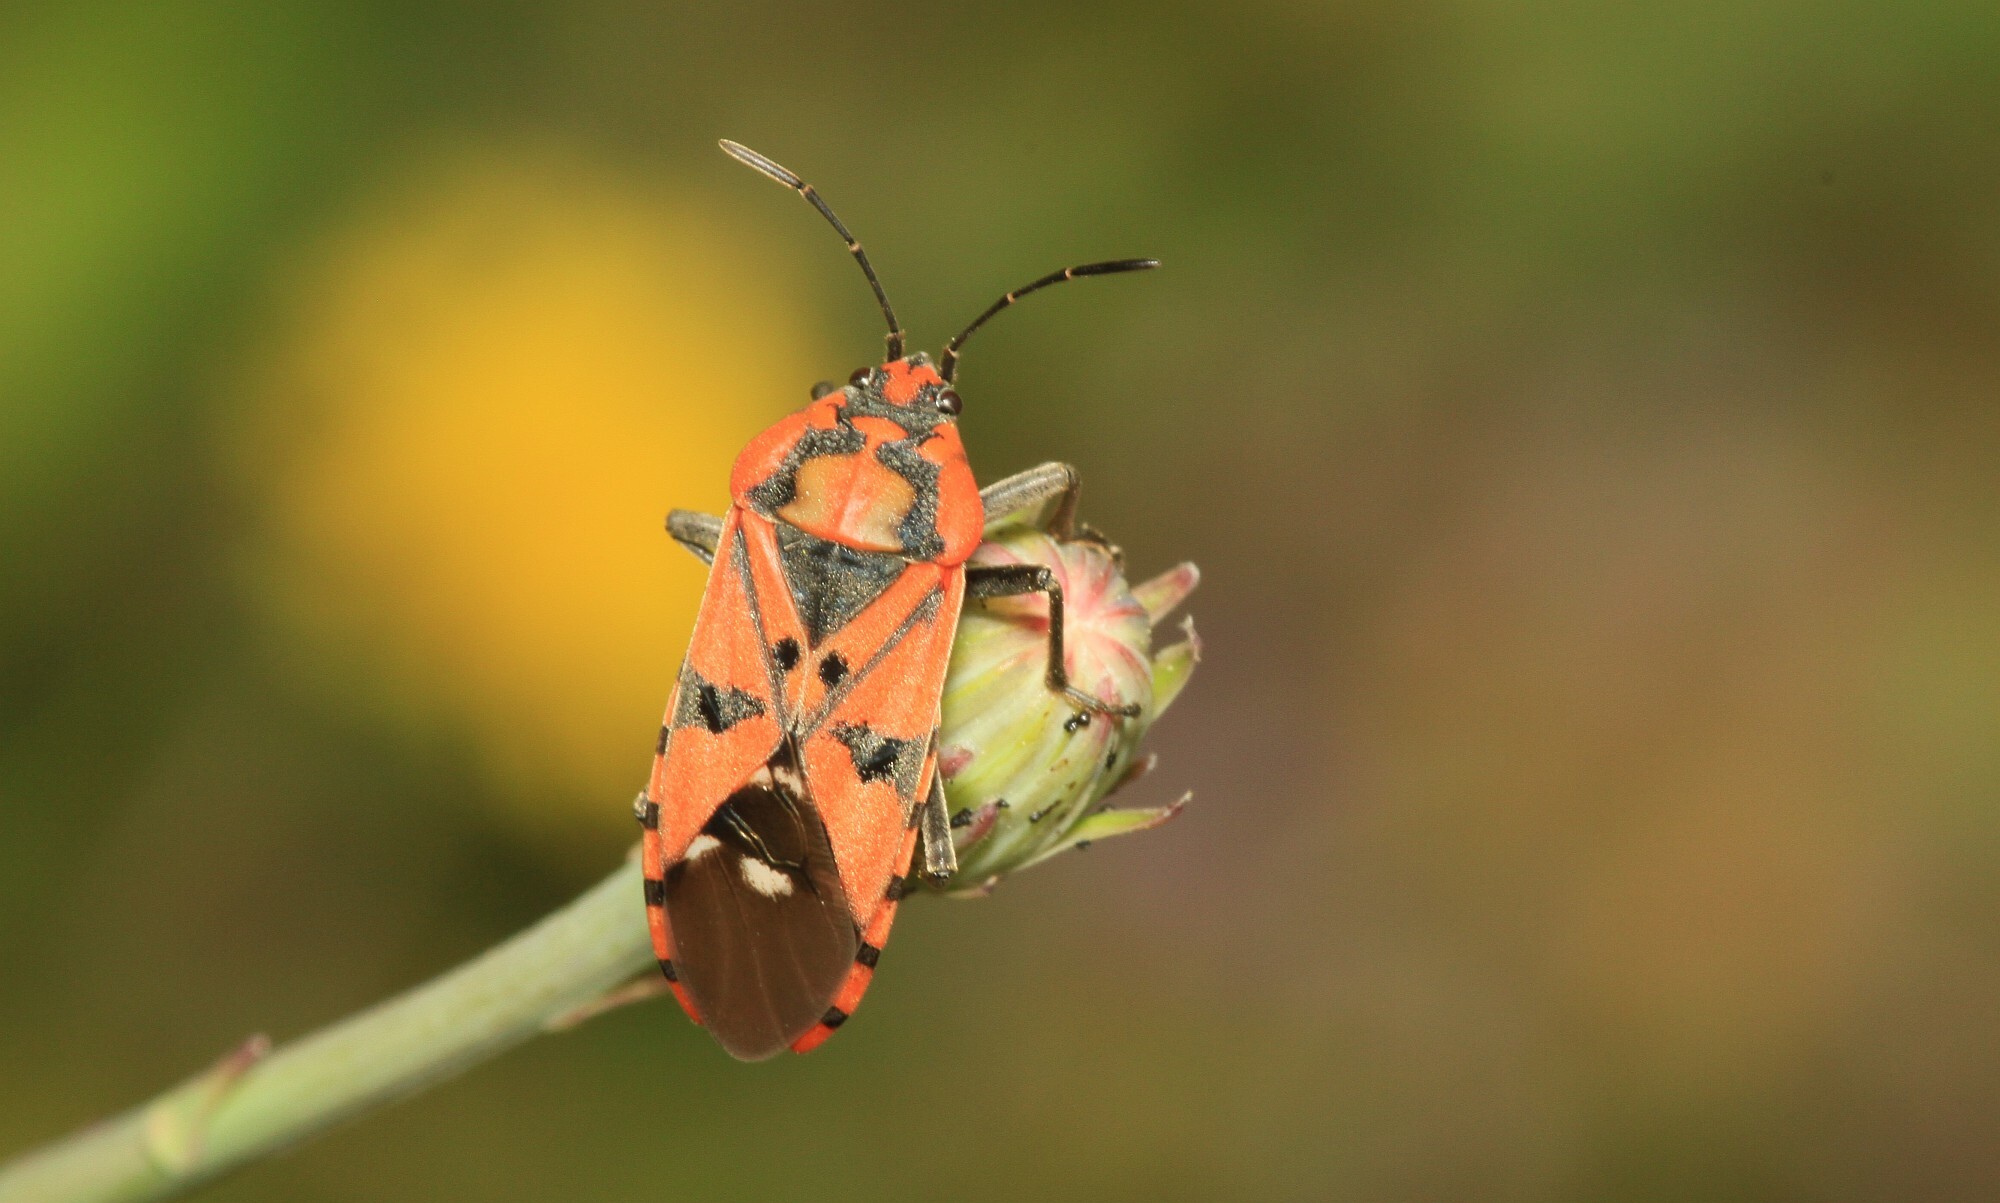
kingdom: Animalia
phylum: Arthropoda
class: Insecta
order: Hemiptera
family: Lygaeidae
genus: Spilostethus
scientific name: Spilostethus pandurus
